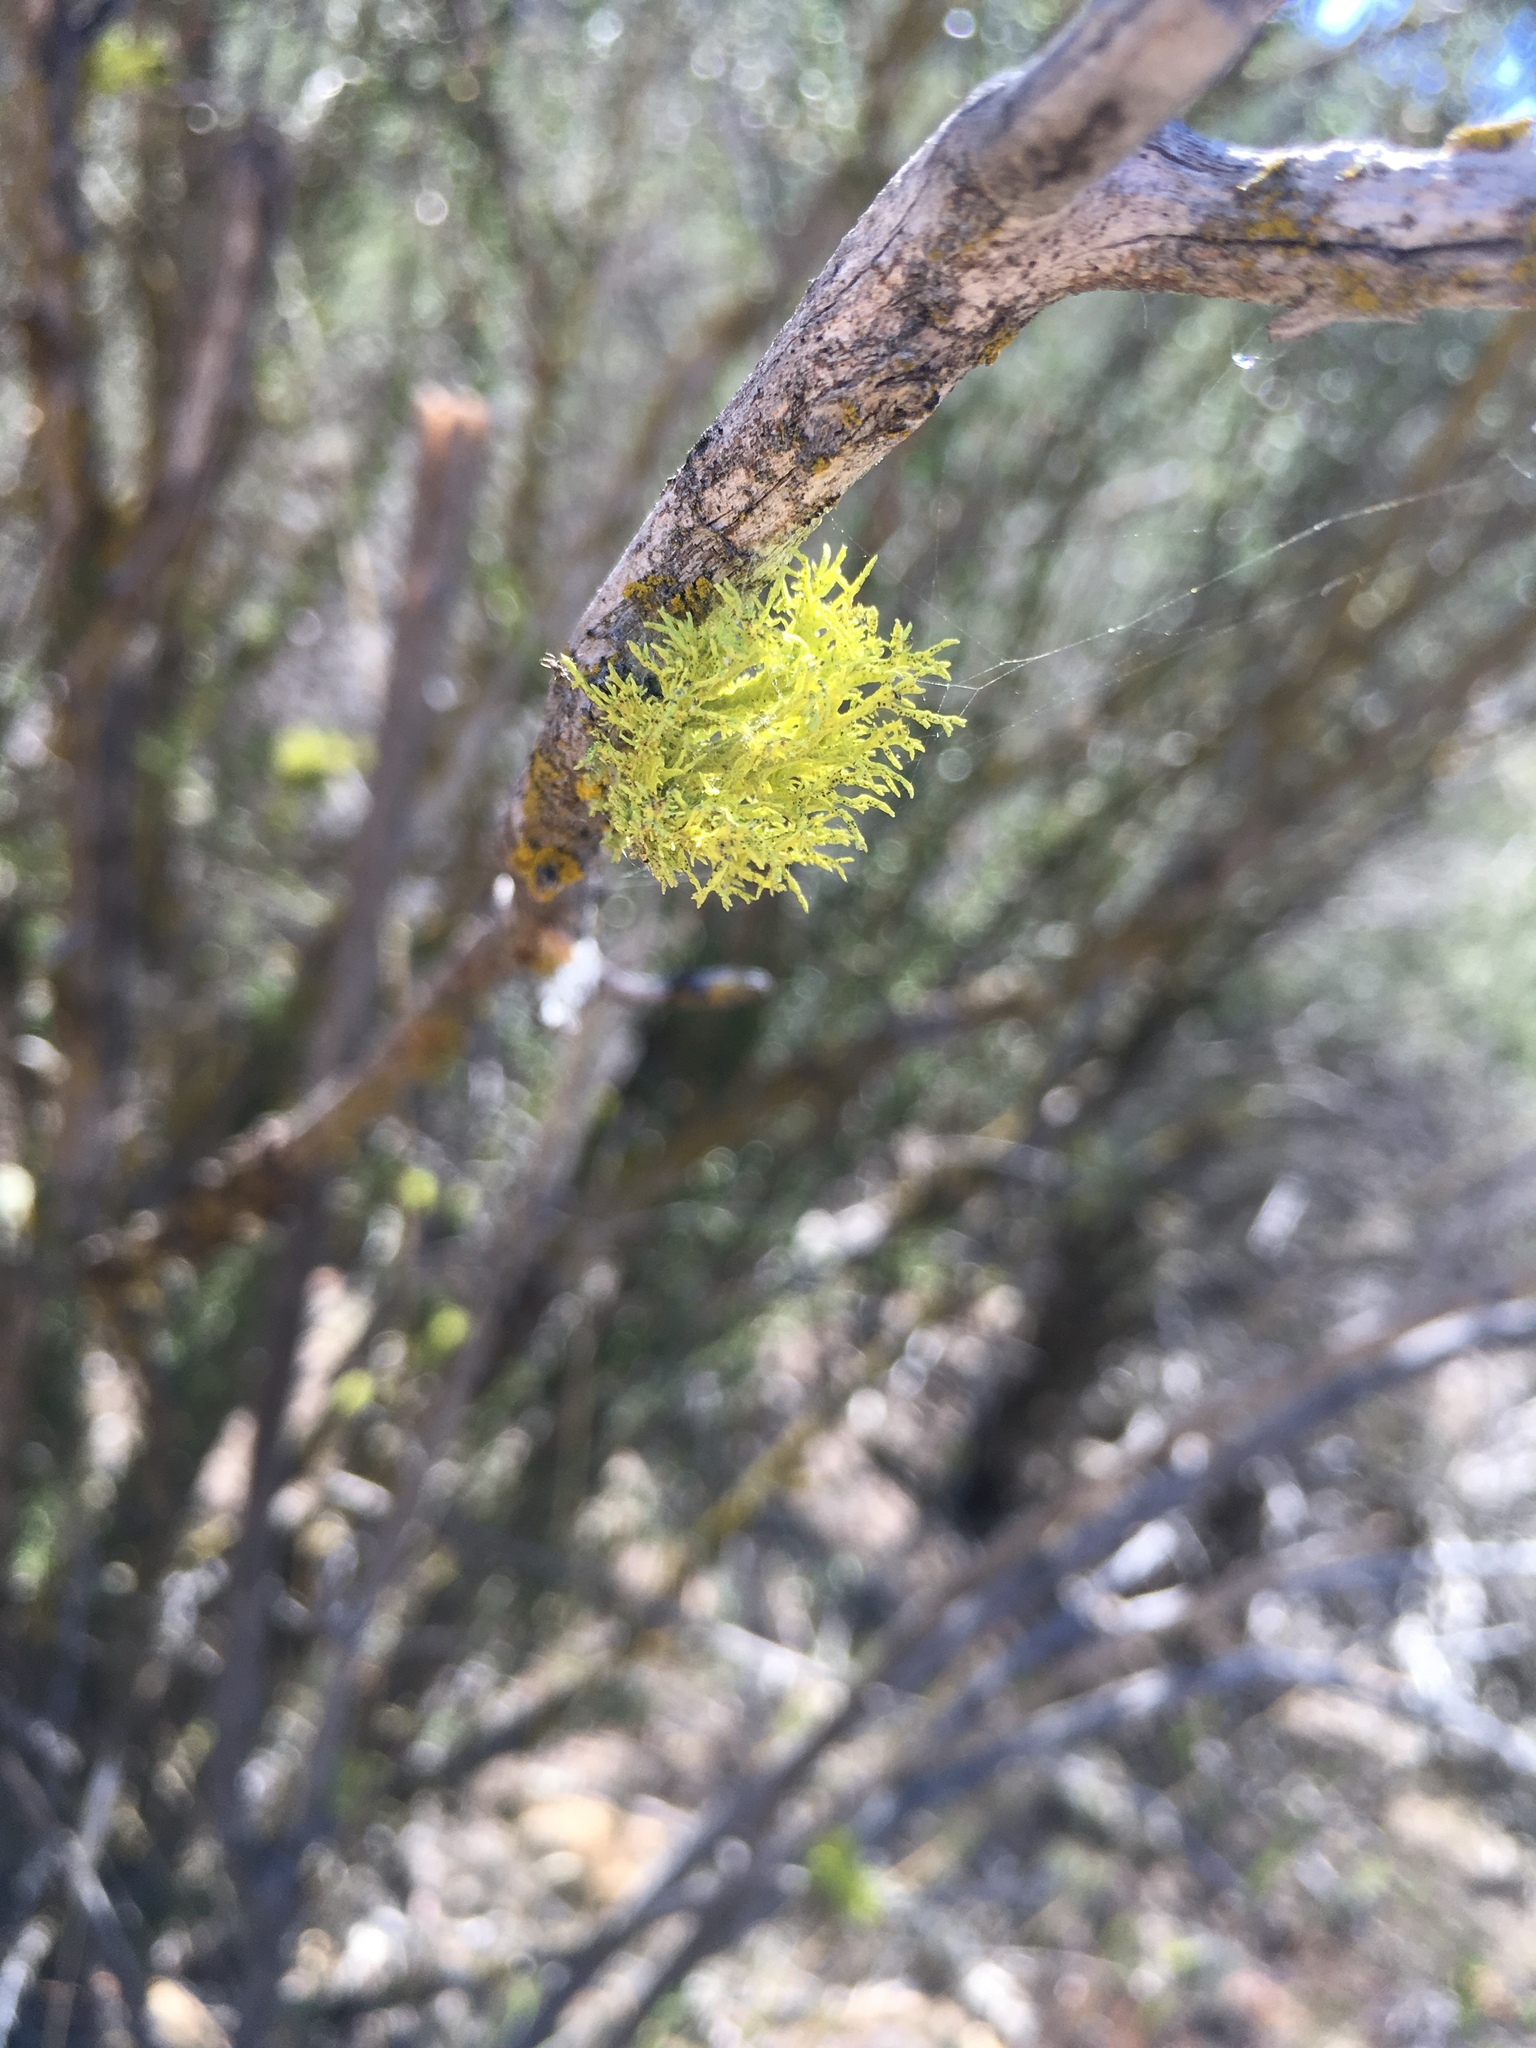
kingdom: Fungi
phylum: Ascomycota
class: Lecanoromycetes
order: Lecanorales
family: Parmeliaceae
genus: Letharia
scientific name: Letharia lupina
